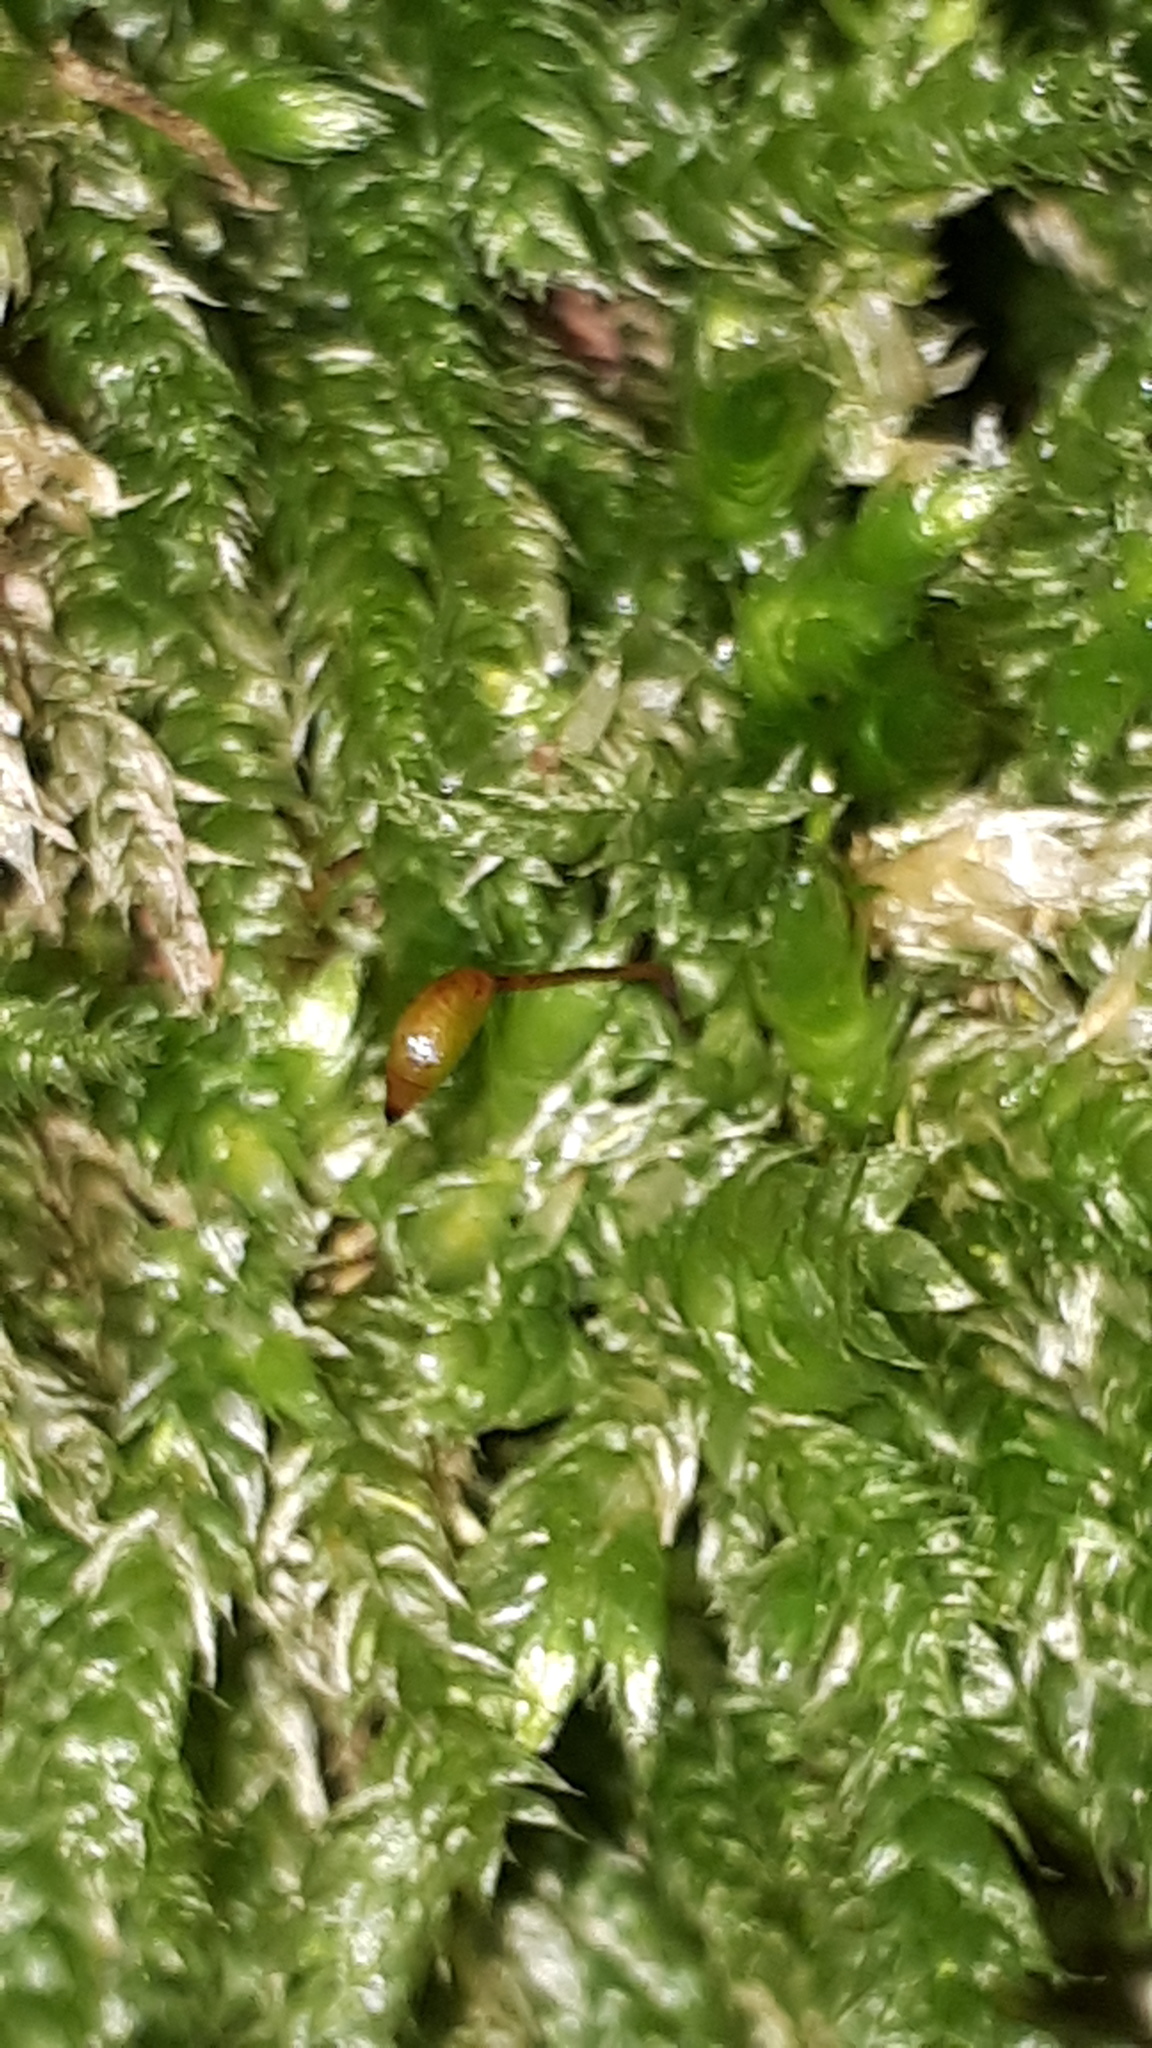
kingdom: Plantae
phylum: Bryophyta
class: Bryopsida
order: Hypnales
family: Brachytheciaceae
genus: Brachythecium
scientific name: Brachythecium rutabulum
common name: Rough-stalked feather-moss
